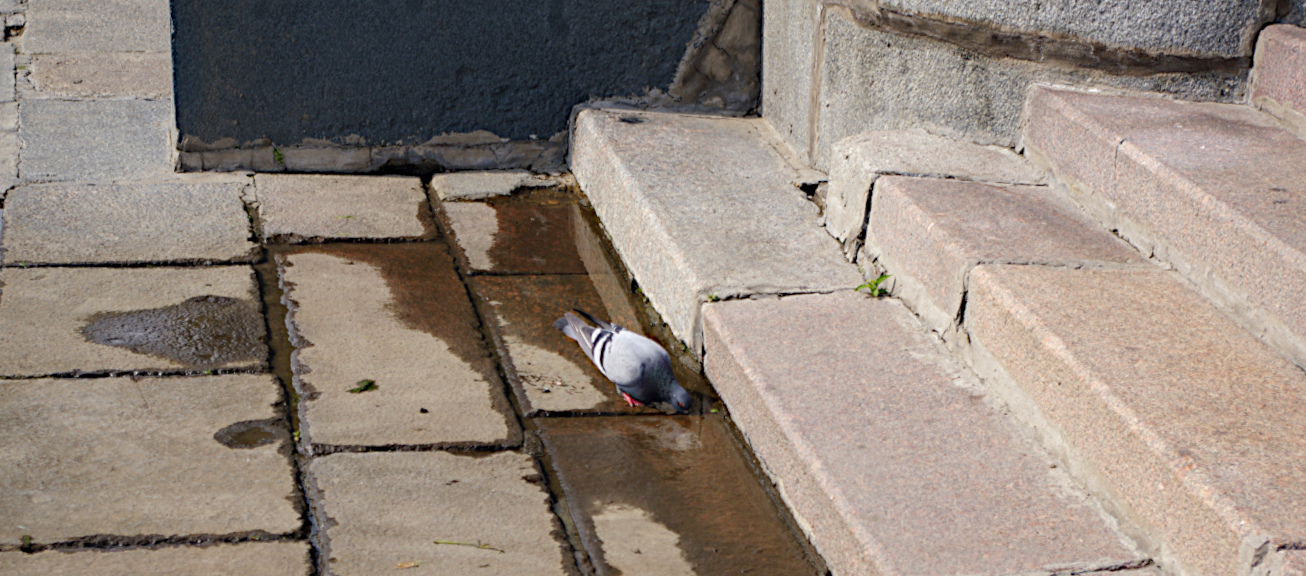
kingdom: Animalia
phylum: Chordata
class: Aves
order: Columbiformes
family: Columbidae
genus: Columba
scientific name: Columba livia
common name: Rock pigeon
